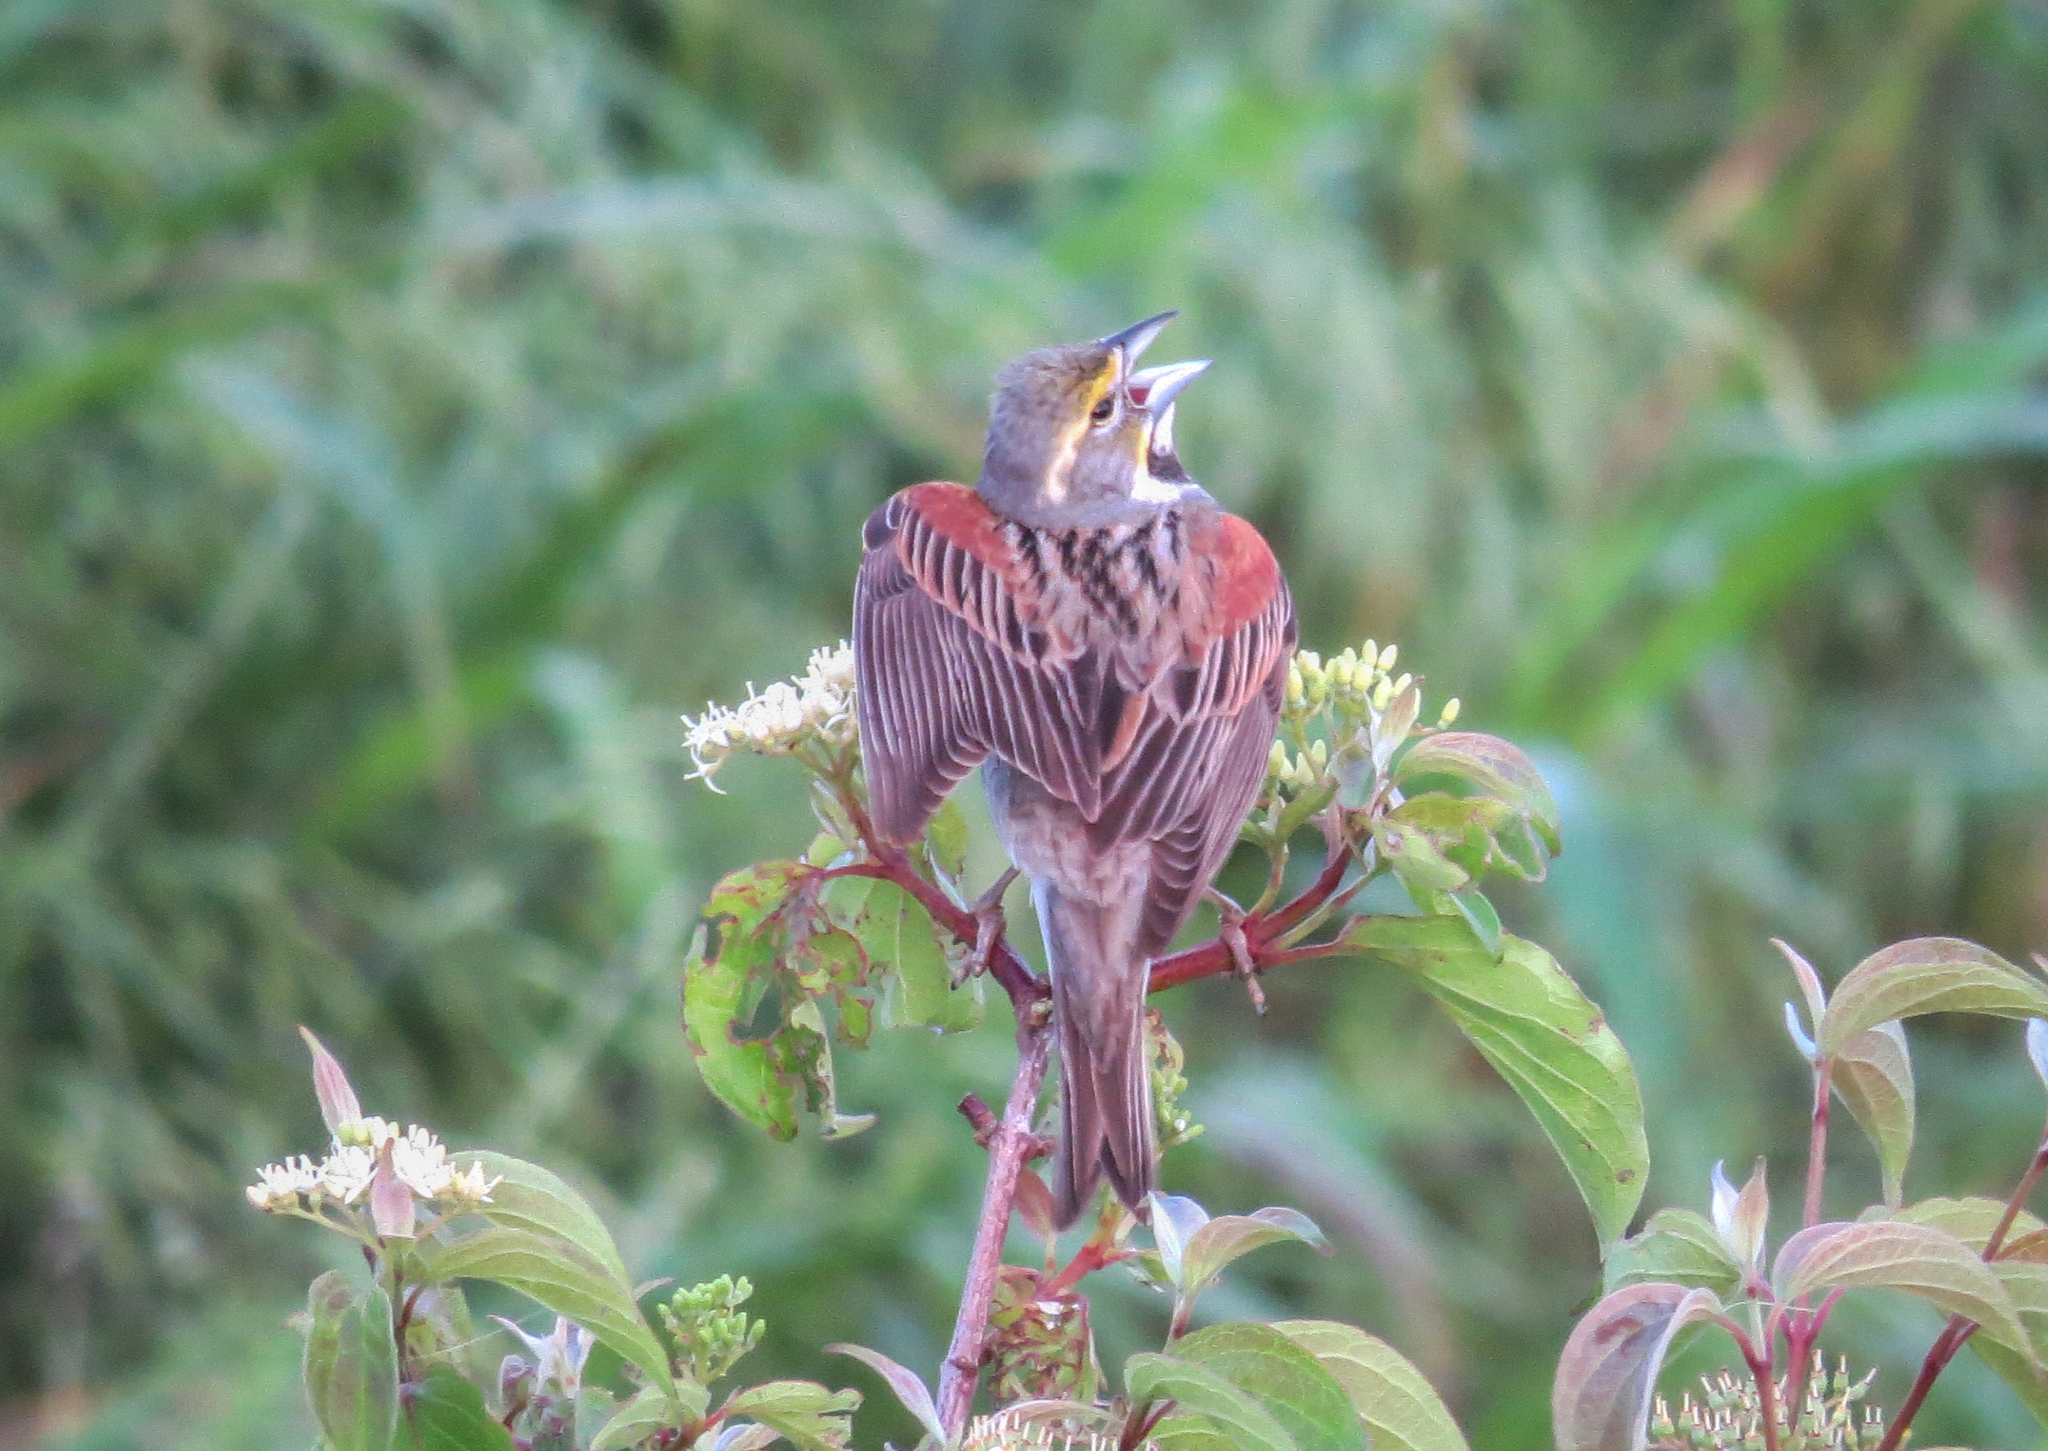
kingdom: Animalia
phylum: Chordata
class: Aves
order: Passeriformes
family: Cardinalidae
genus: Spiza
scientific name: Spiza americana
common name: Dickcissel
